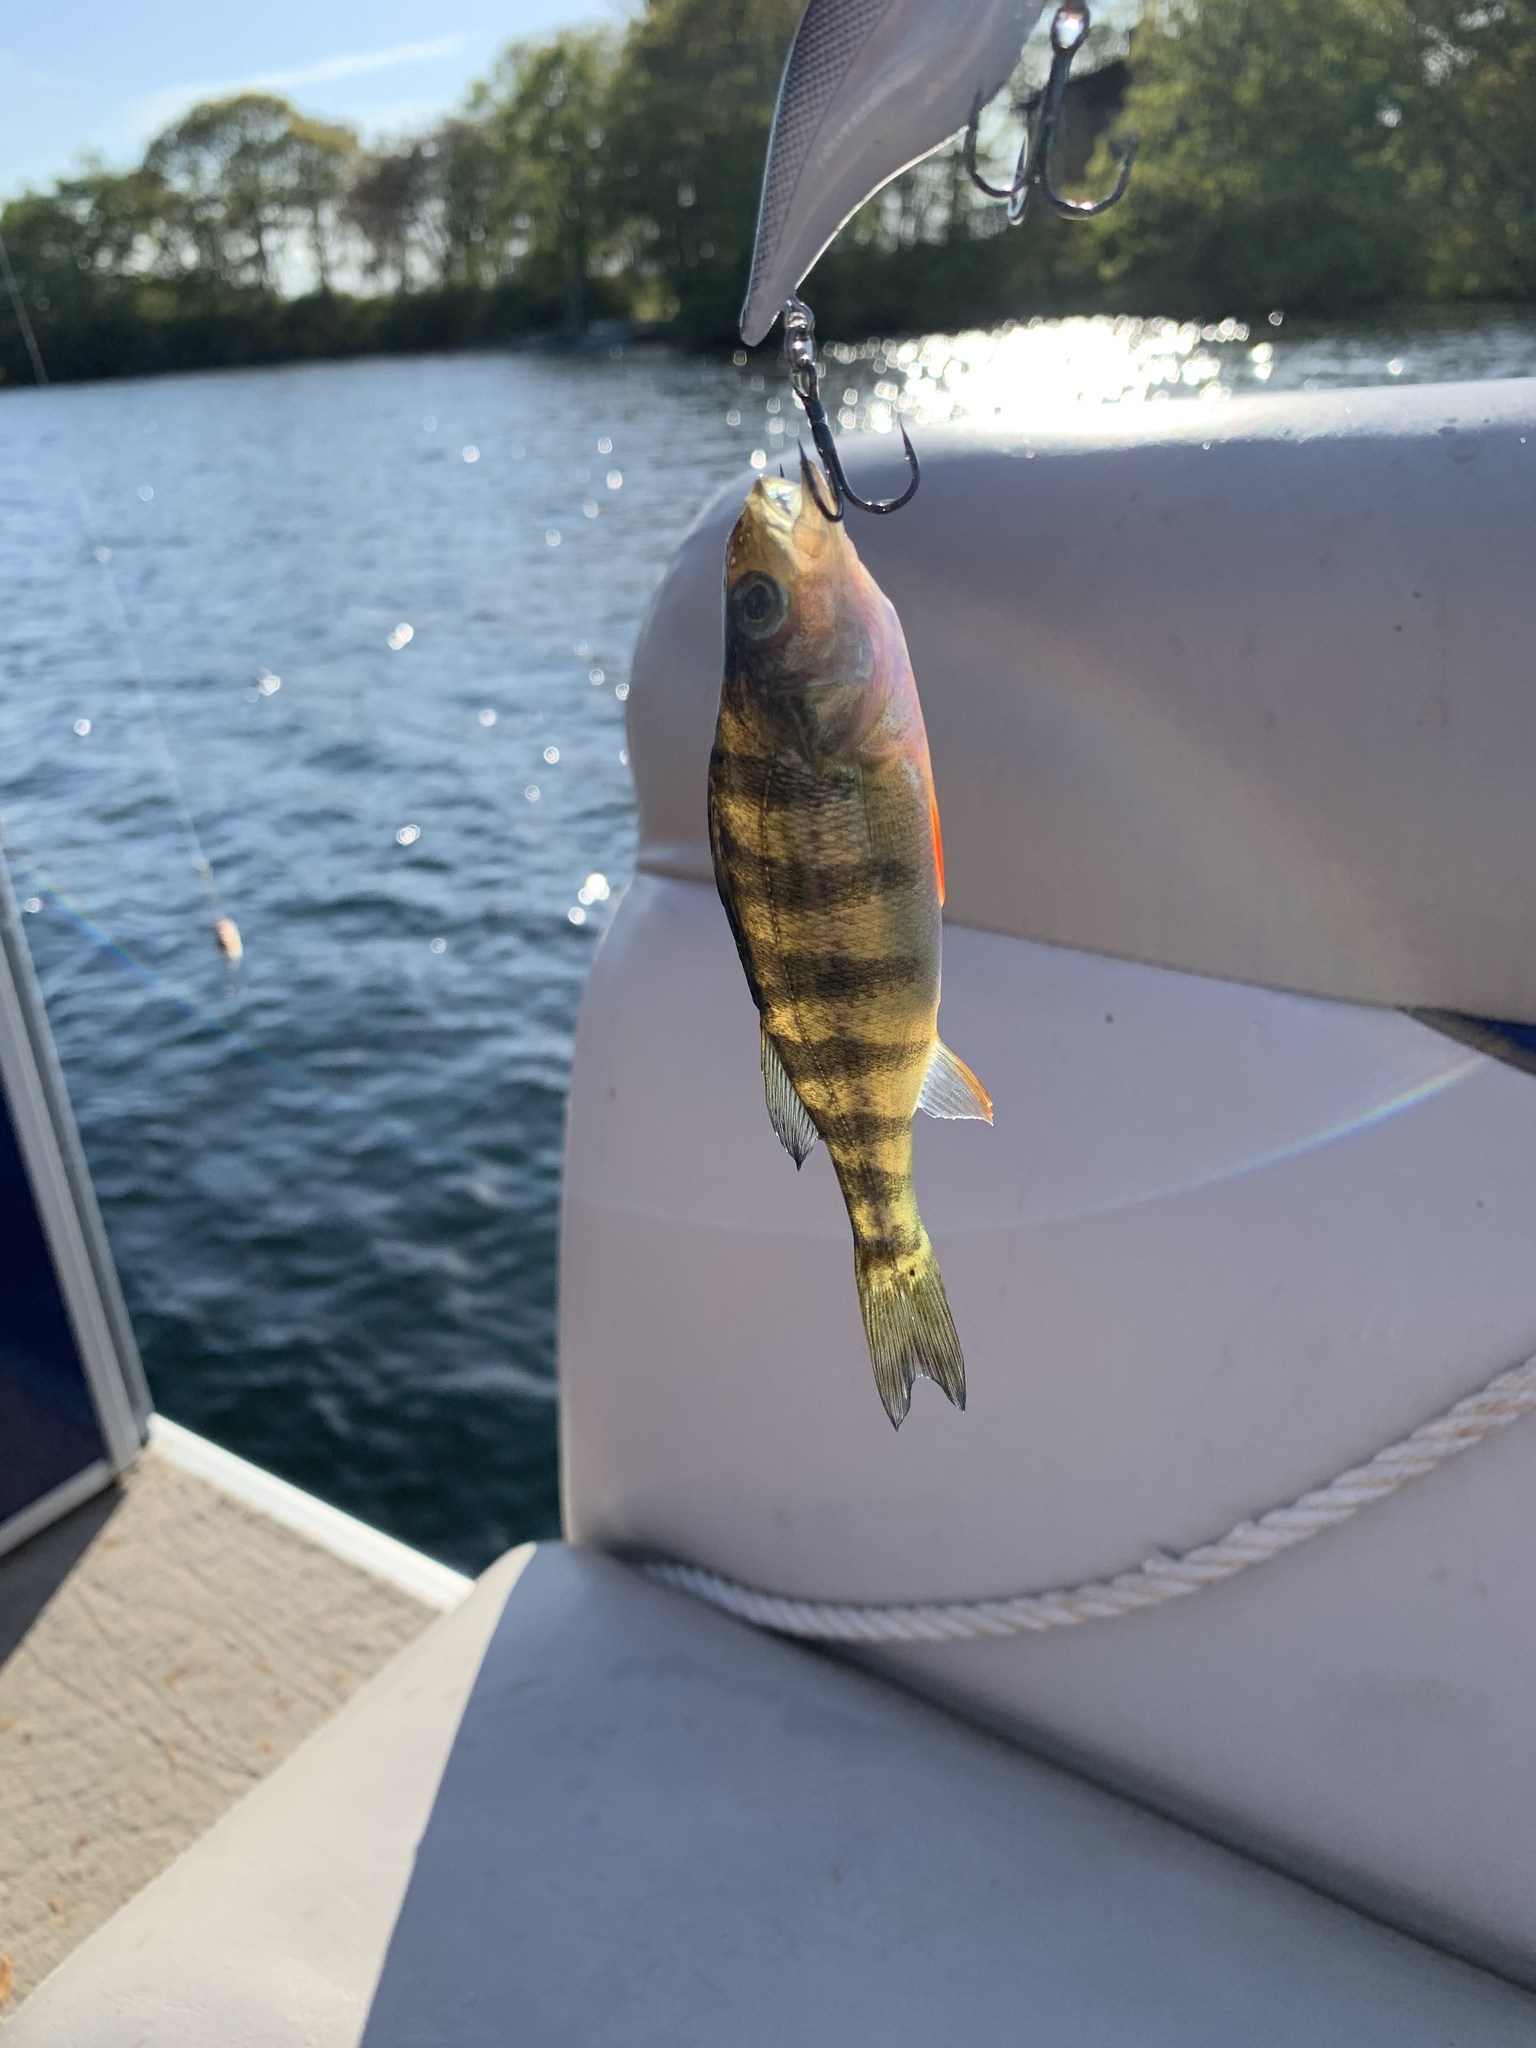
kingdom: Animalia
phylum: Chordata
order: Perciformes
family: Percidae
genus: Perca
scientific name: Perca flavescens
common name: Yellow perch
